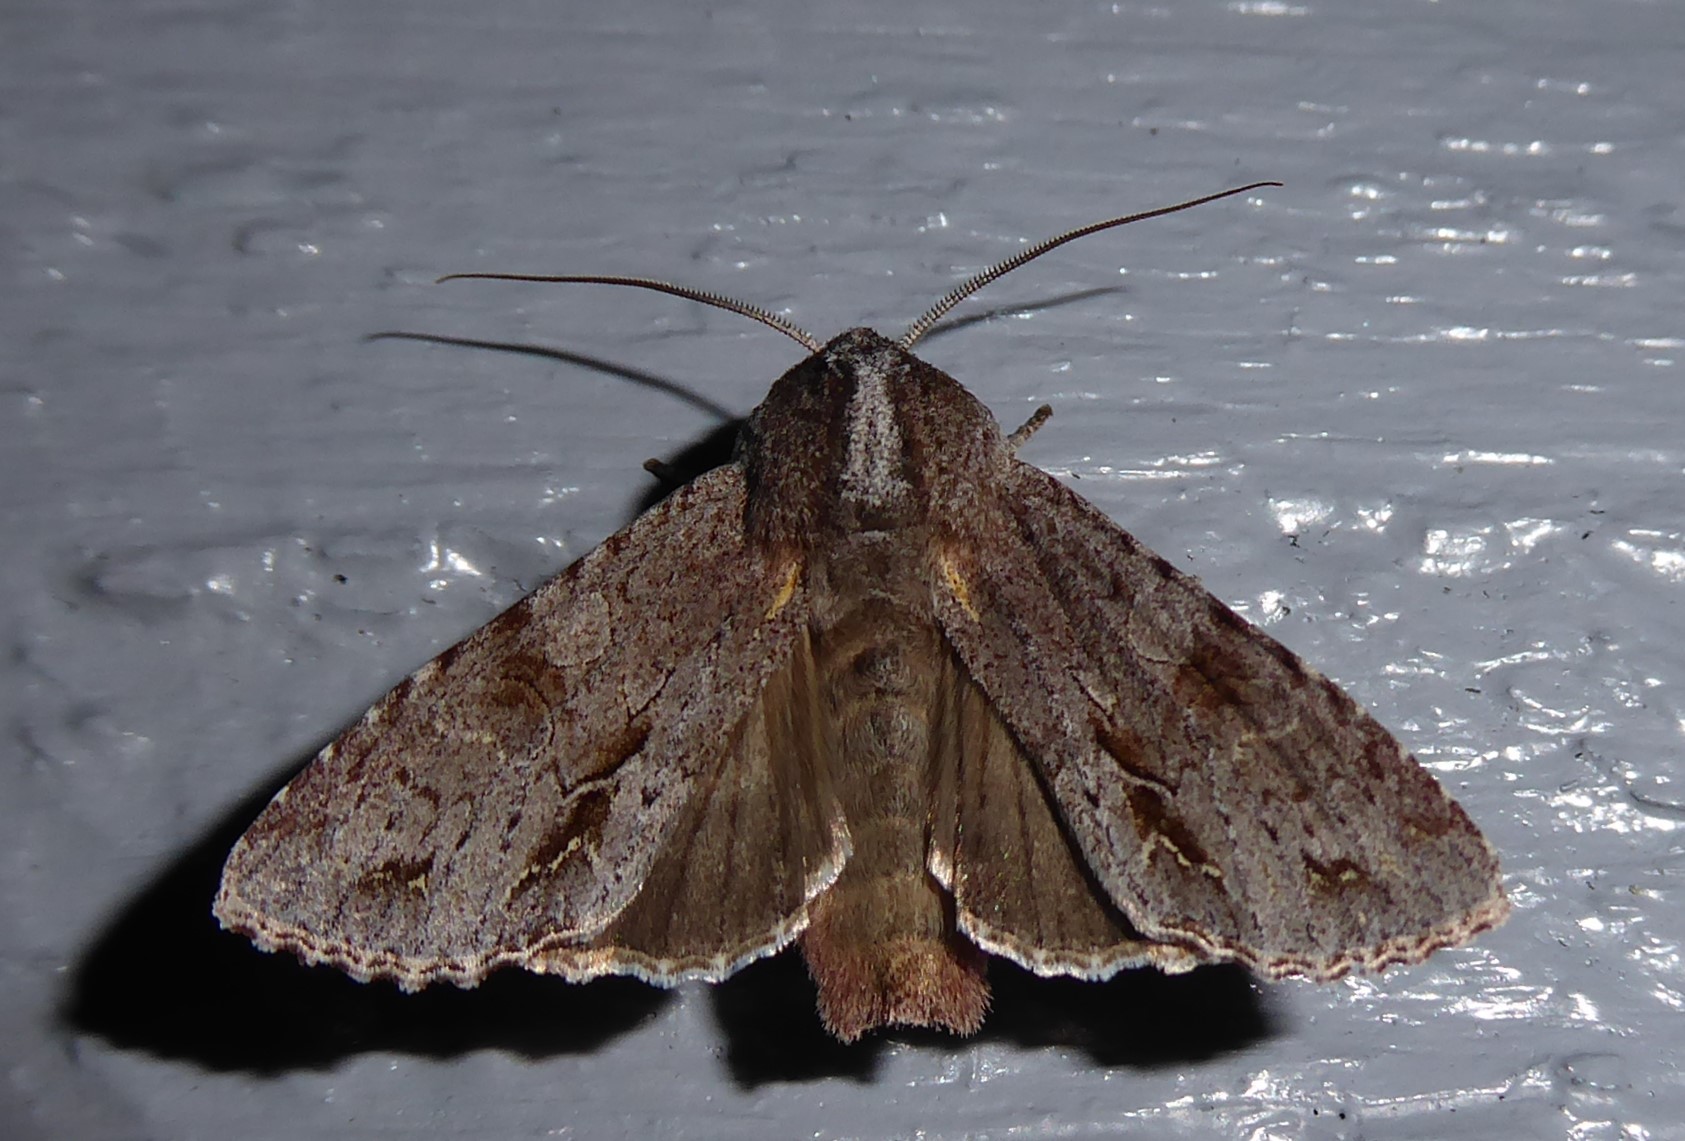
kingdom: Animalia
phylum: Arthropoda
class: Insecta
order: Lepidoptera
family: Noctuidae
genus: Ichneutica
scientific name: Ichneutica
